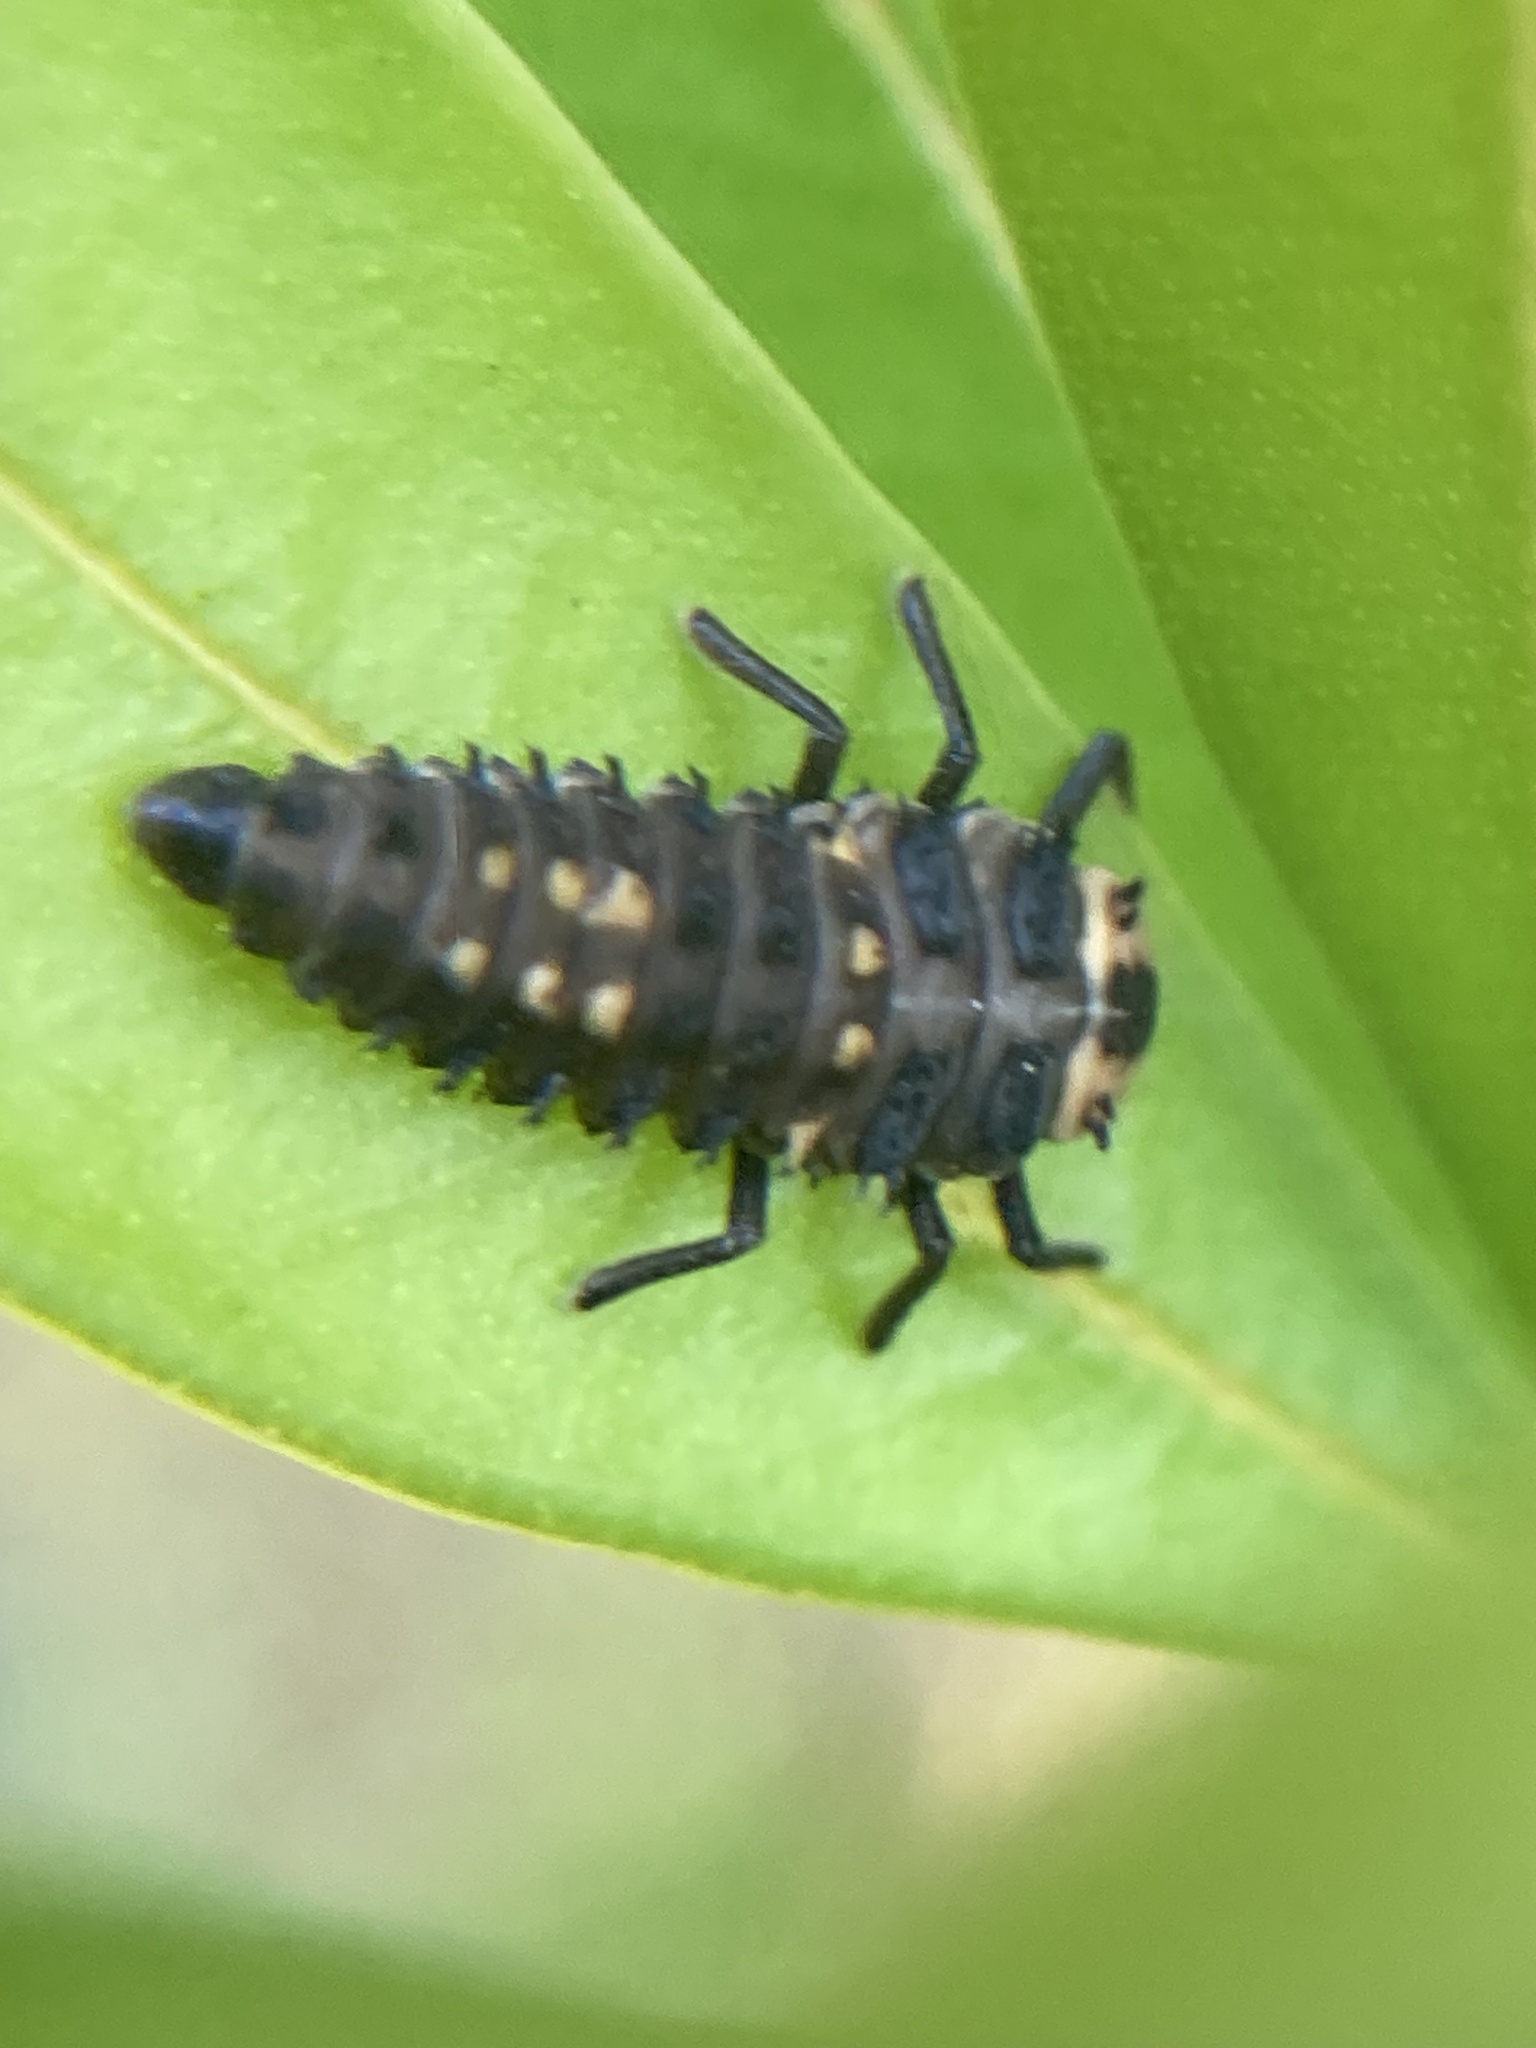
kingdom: Animalia
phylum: Arthropoda
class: Insecta
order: Coleoptera
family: Coccinellidae
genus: Harmonia
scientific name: Harmonia
